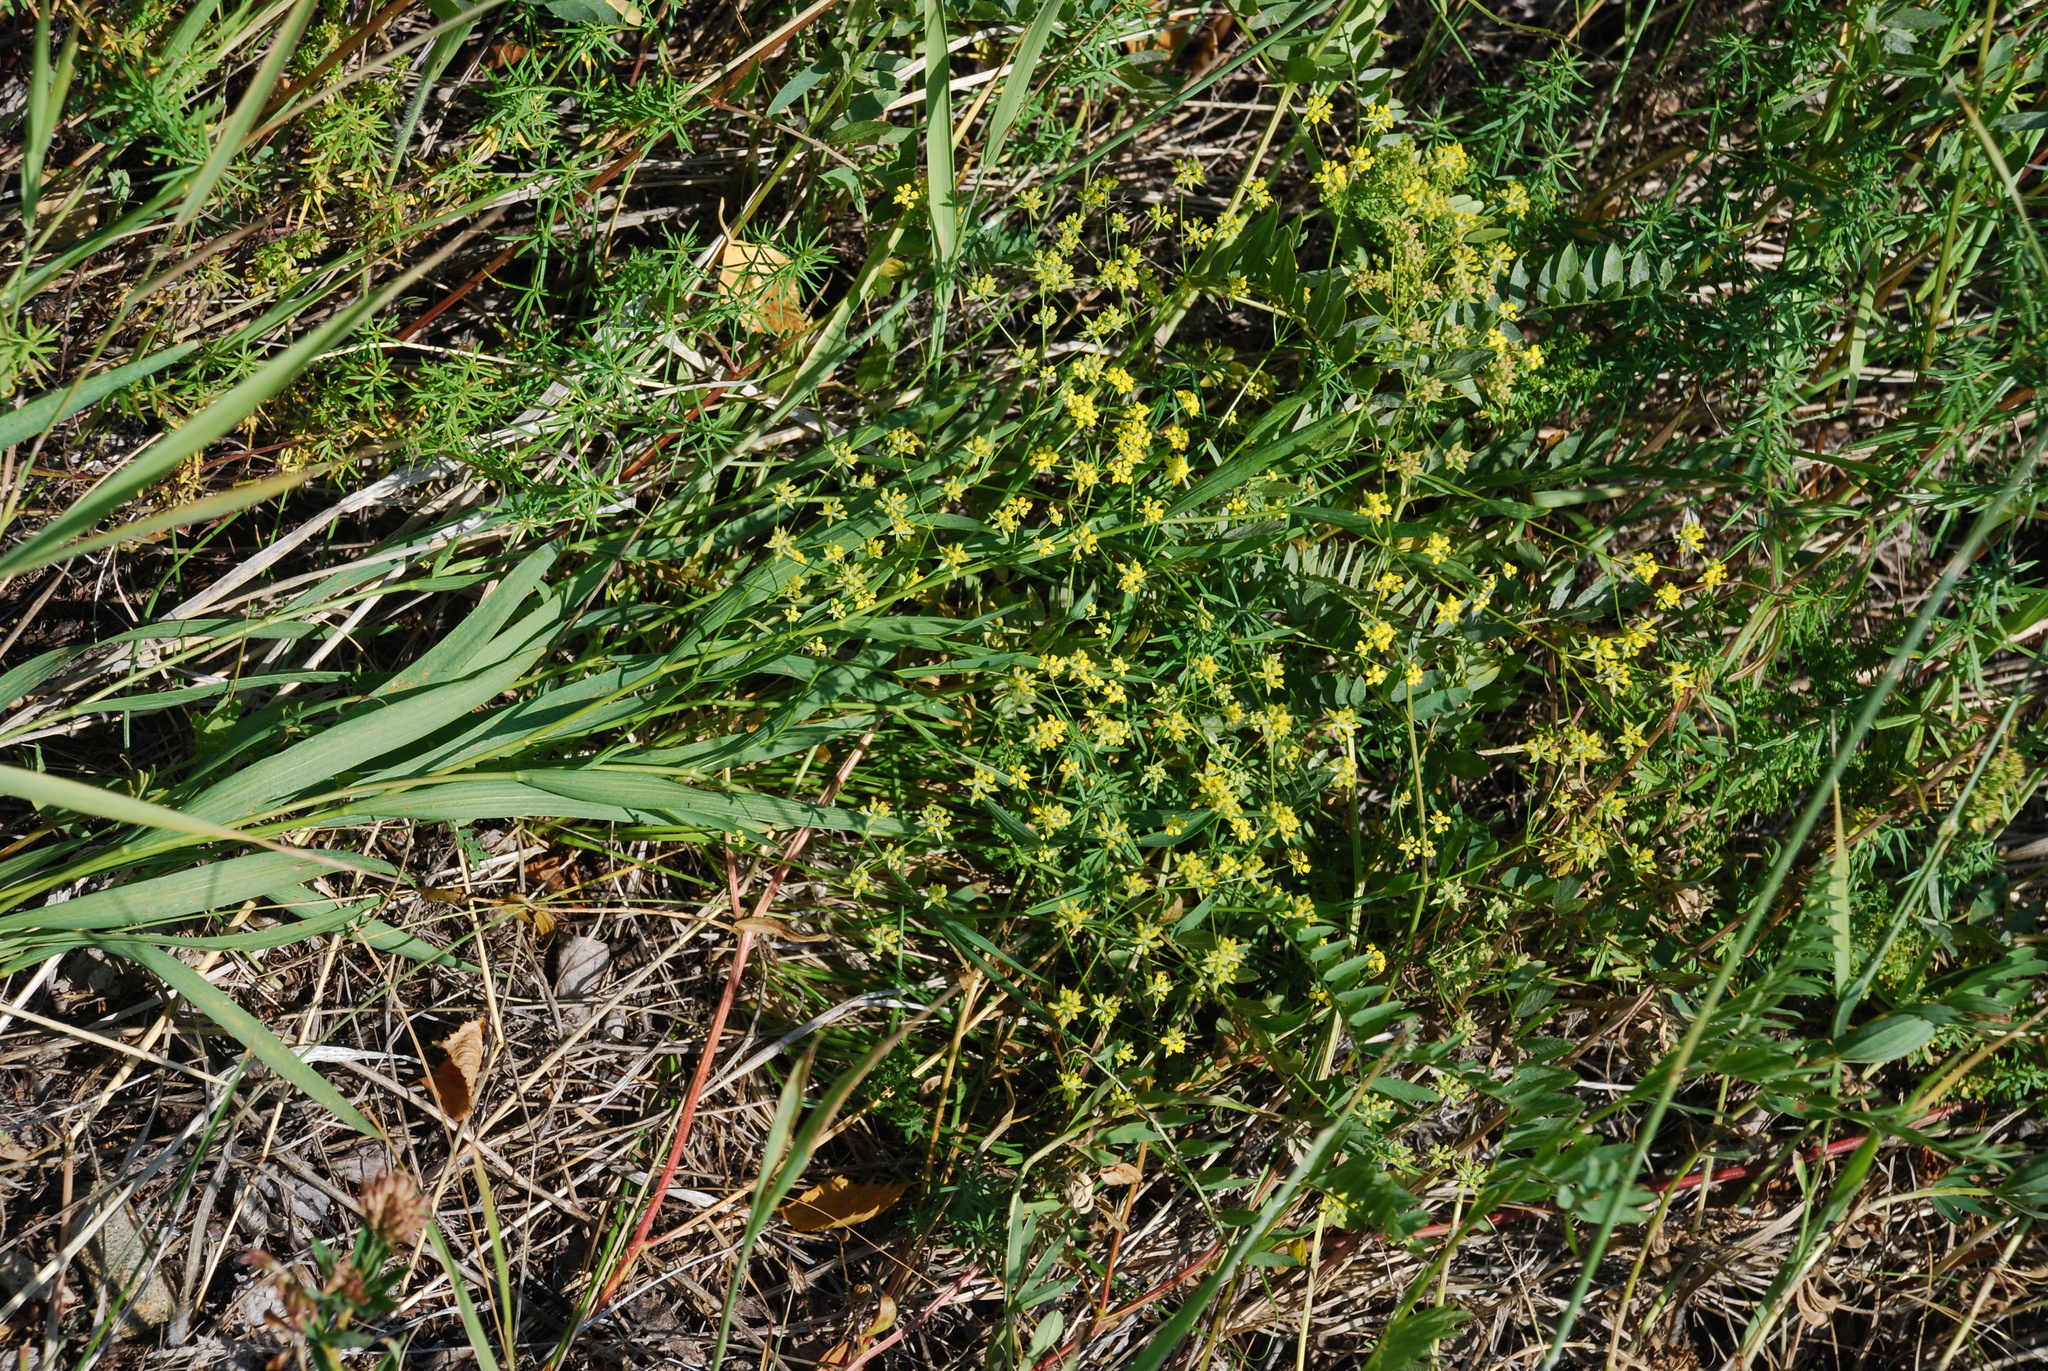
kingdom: Plantae
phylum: Tracheophyta
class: Magnoliopsida
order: Apiales
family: Apiaceae
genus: Bupleurum
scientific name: Bupleurum scorzonerifolium
